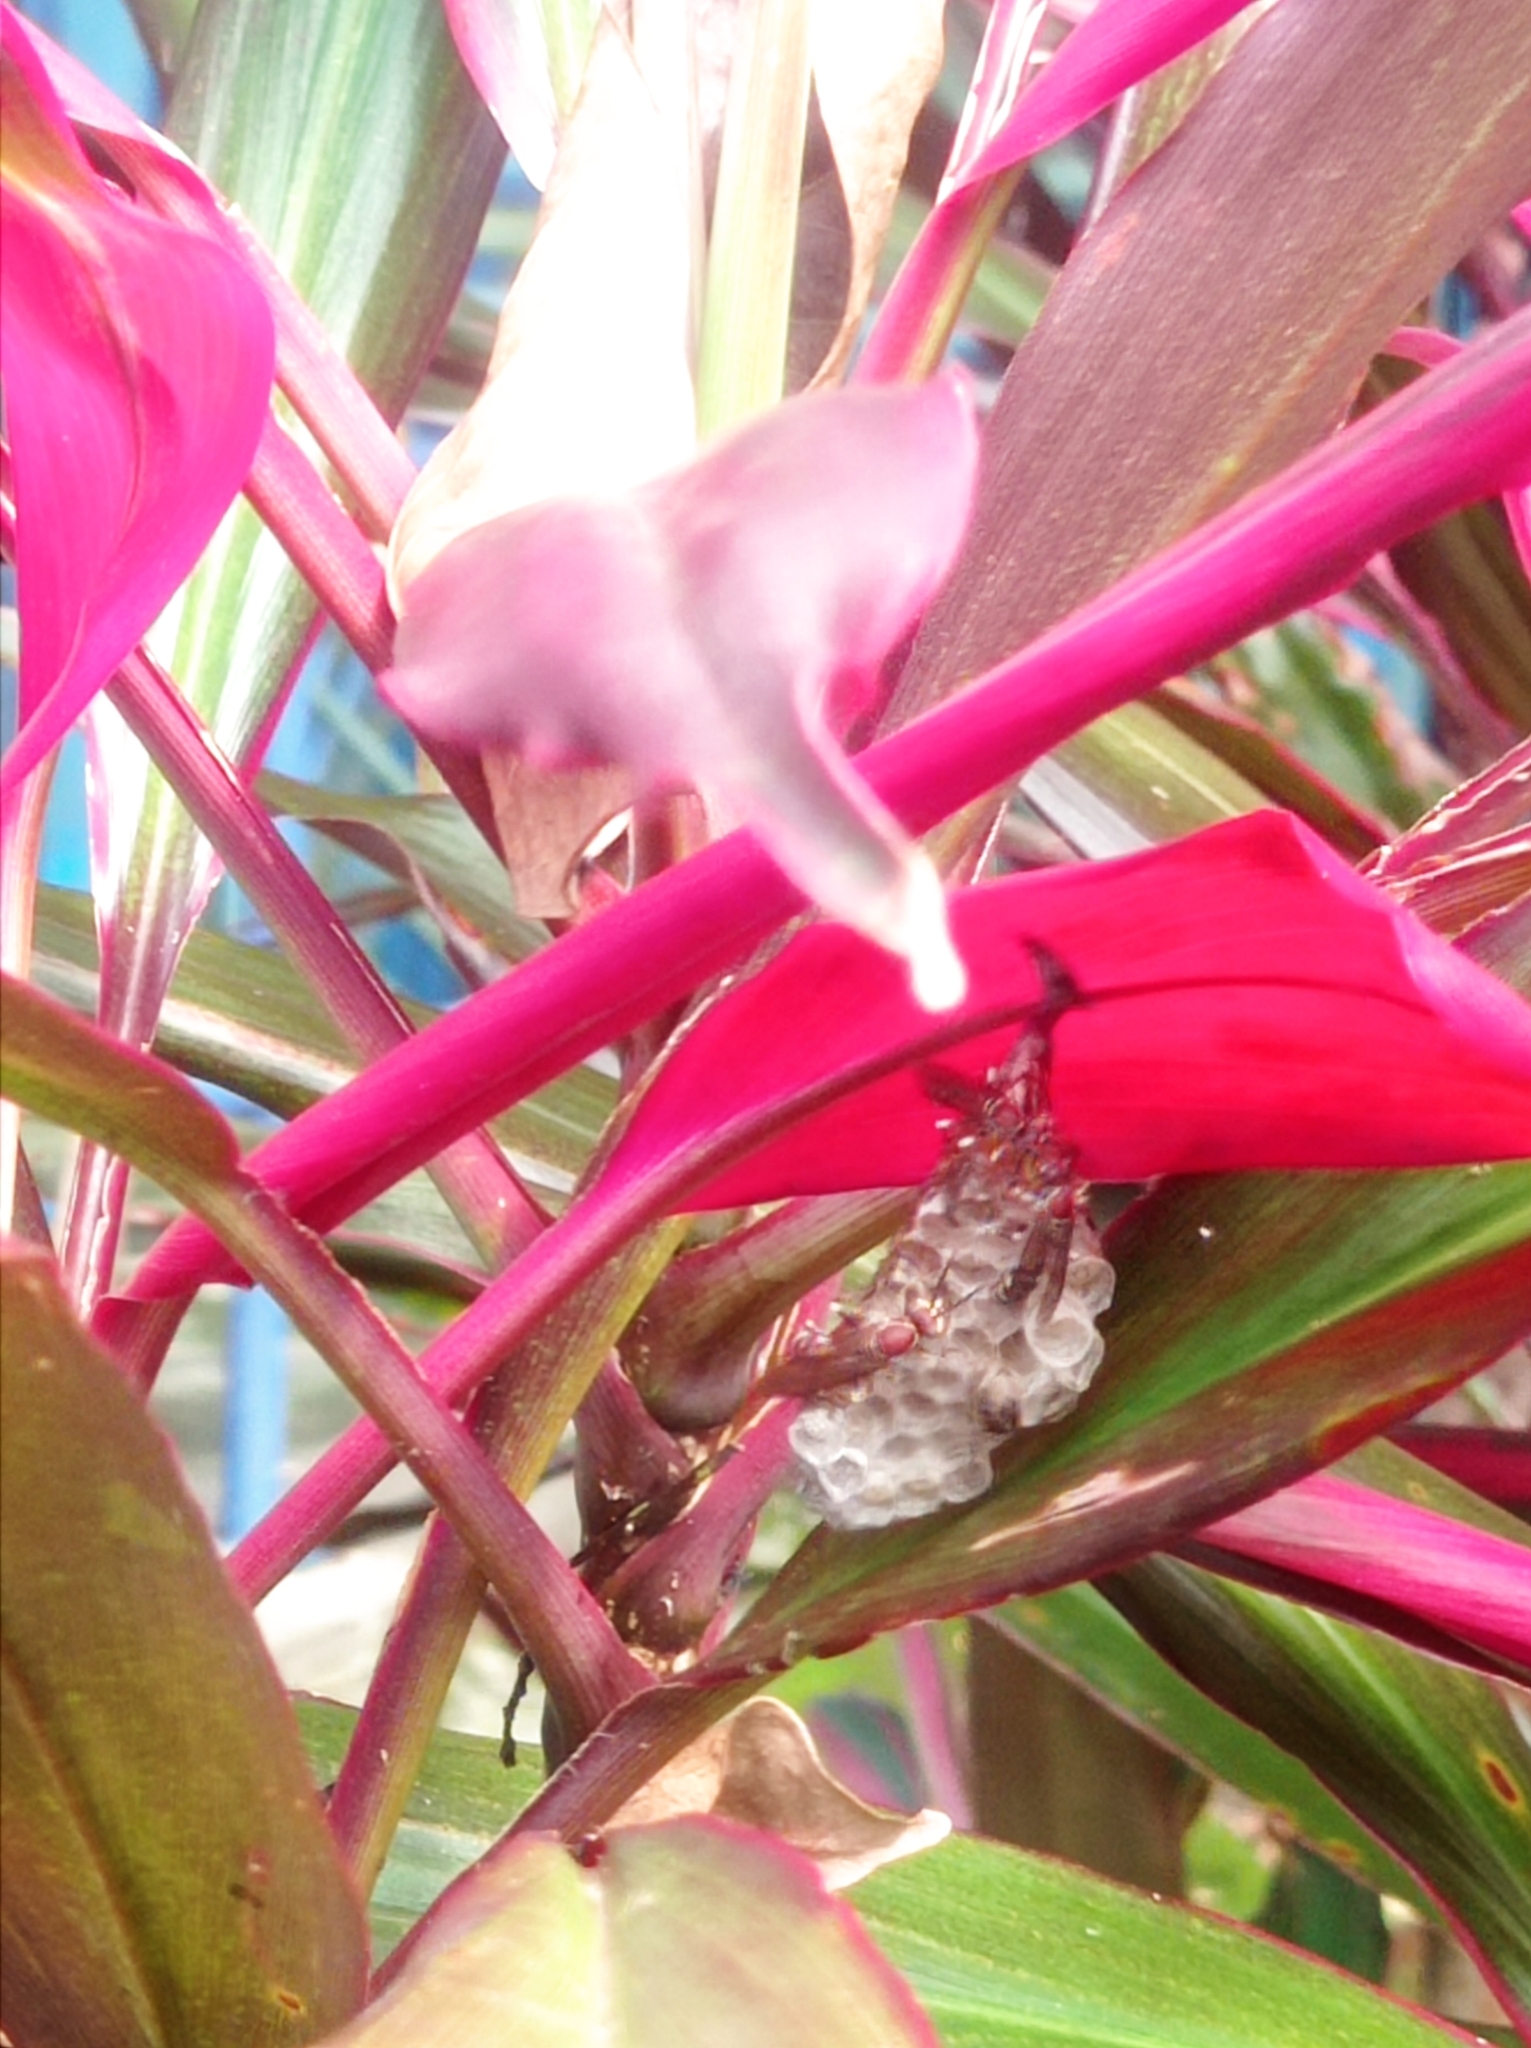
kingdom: Animalia
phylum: Arthropoda
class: Insecta
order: Hymenoptera
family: Vespidae
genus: Parapolybia
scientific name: Parapolybia nodosa
